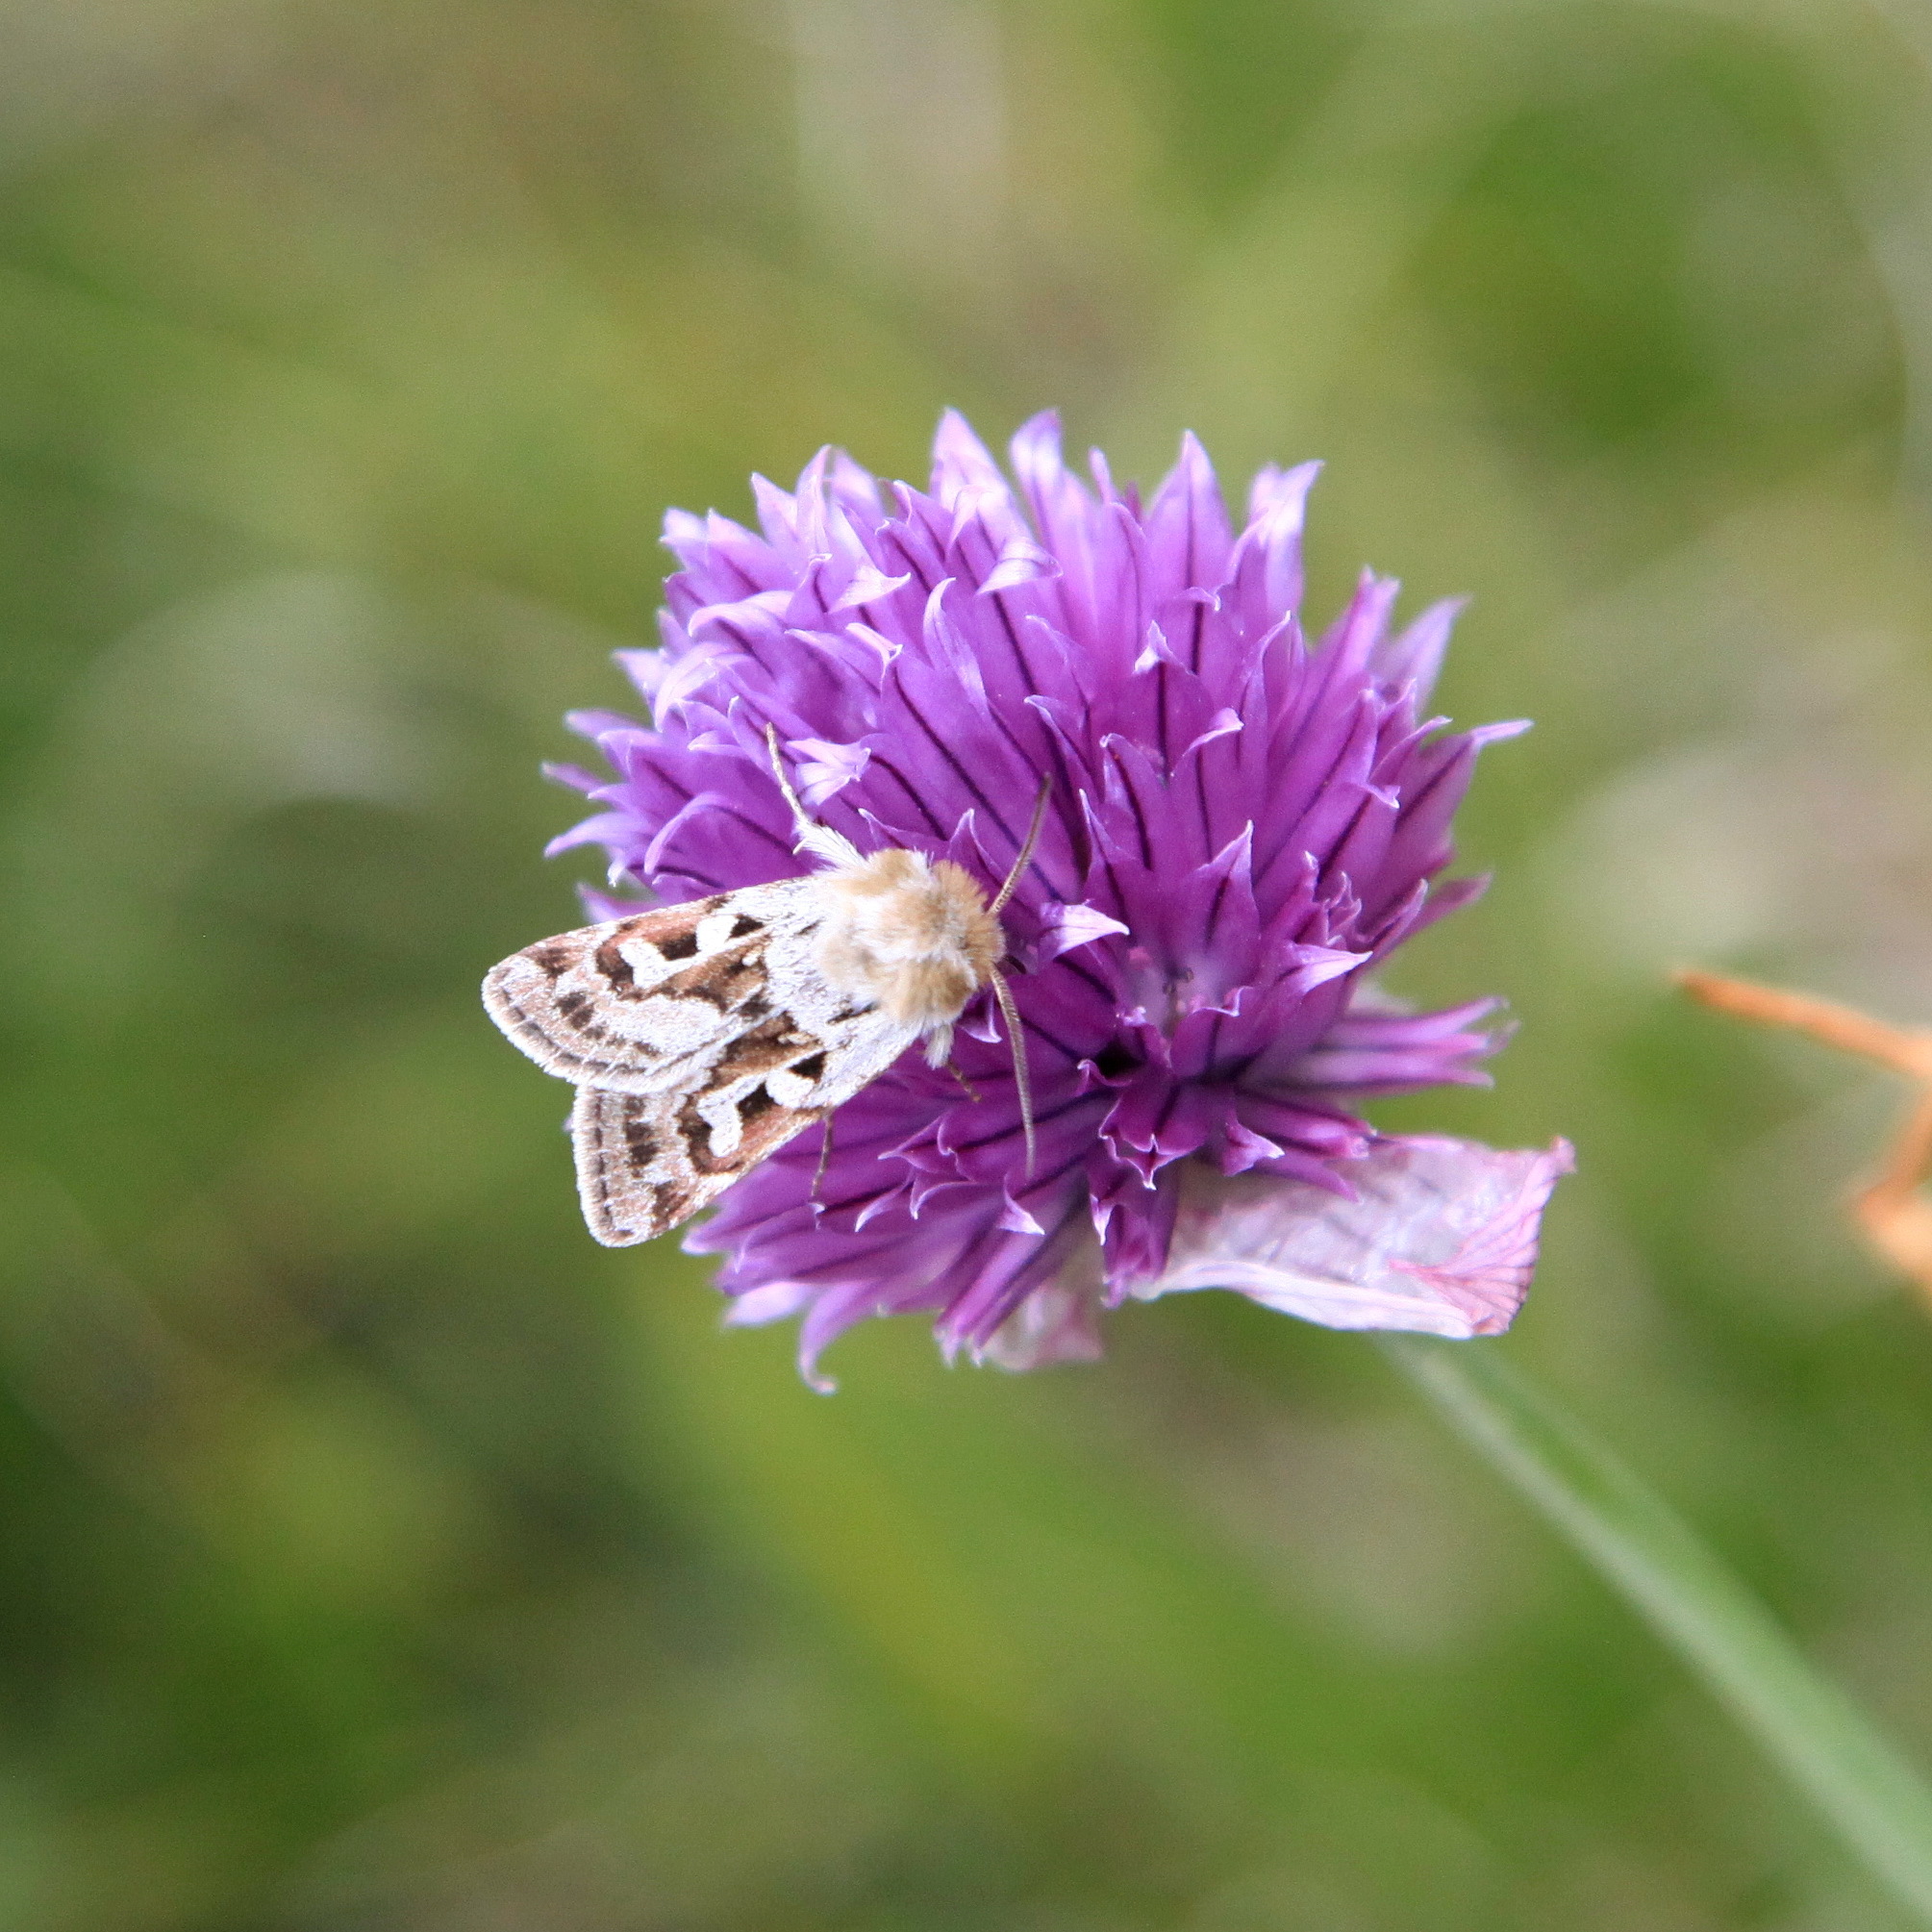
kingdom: Animalia
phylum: Arthropoda
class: Insecta
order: Lepidoptera
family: Noctuidae
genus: Estimata
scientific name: Estimata alexis
